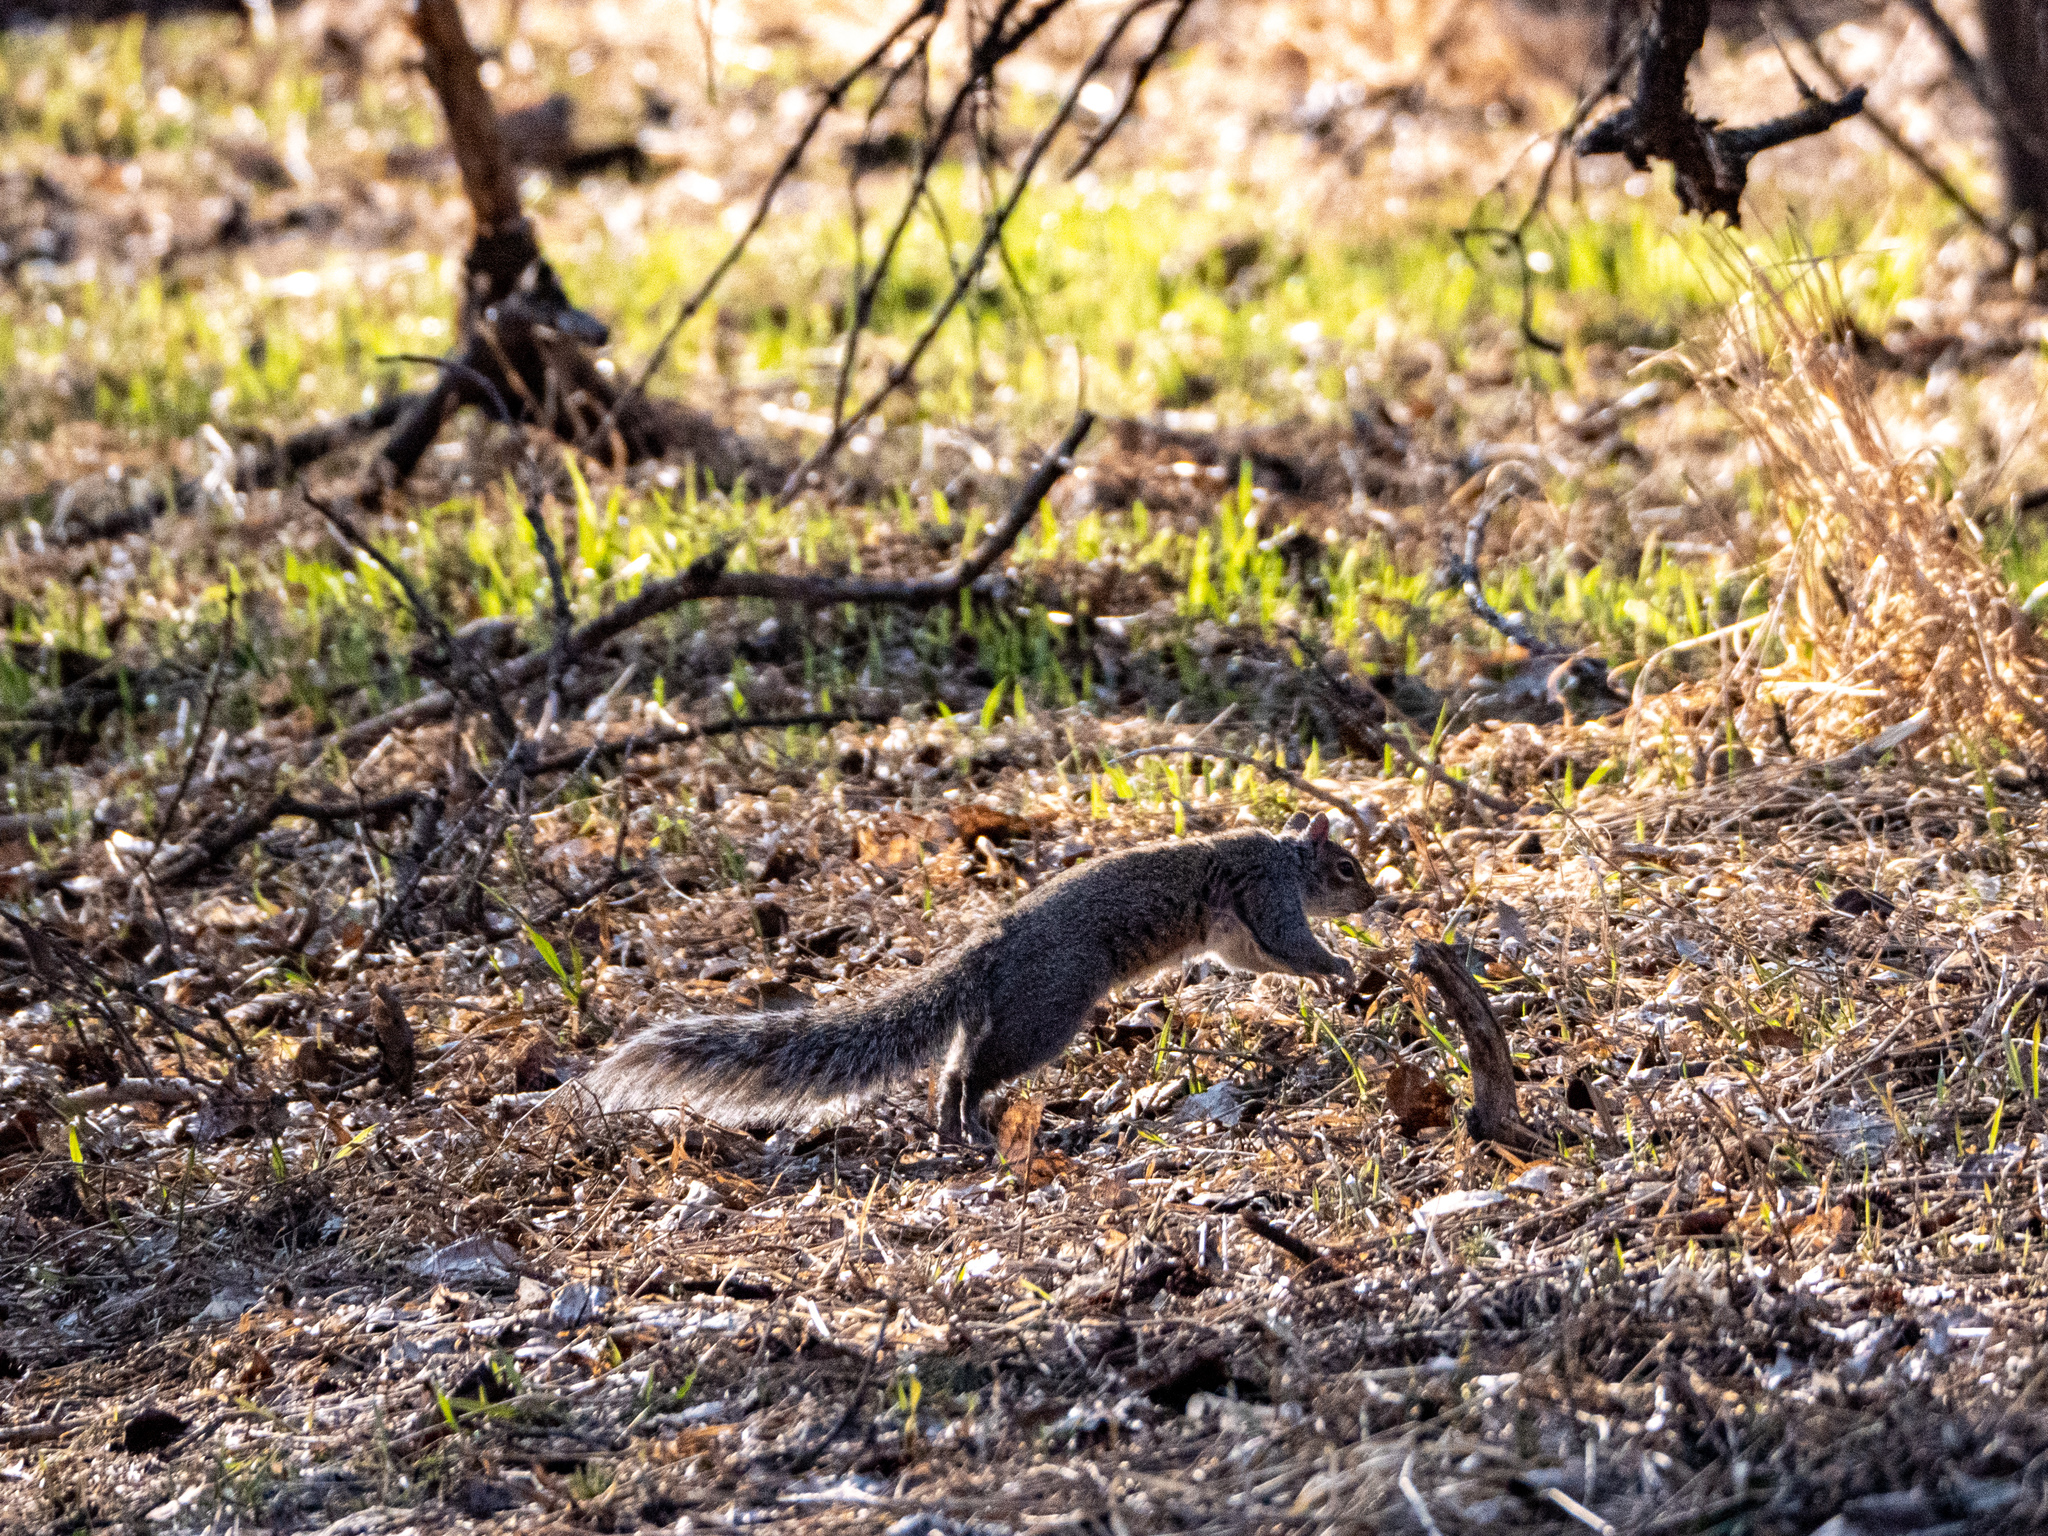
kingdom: Animalia
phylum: Chordata
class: Mammalia
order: Rodentia
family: Sciuridae
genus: Sciurus
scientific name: Sciurus carolinensis
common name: Eastern gray squirrel
